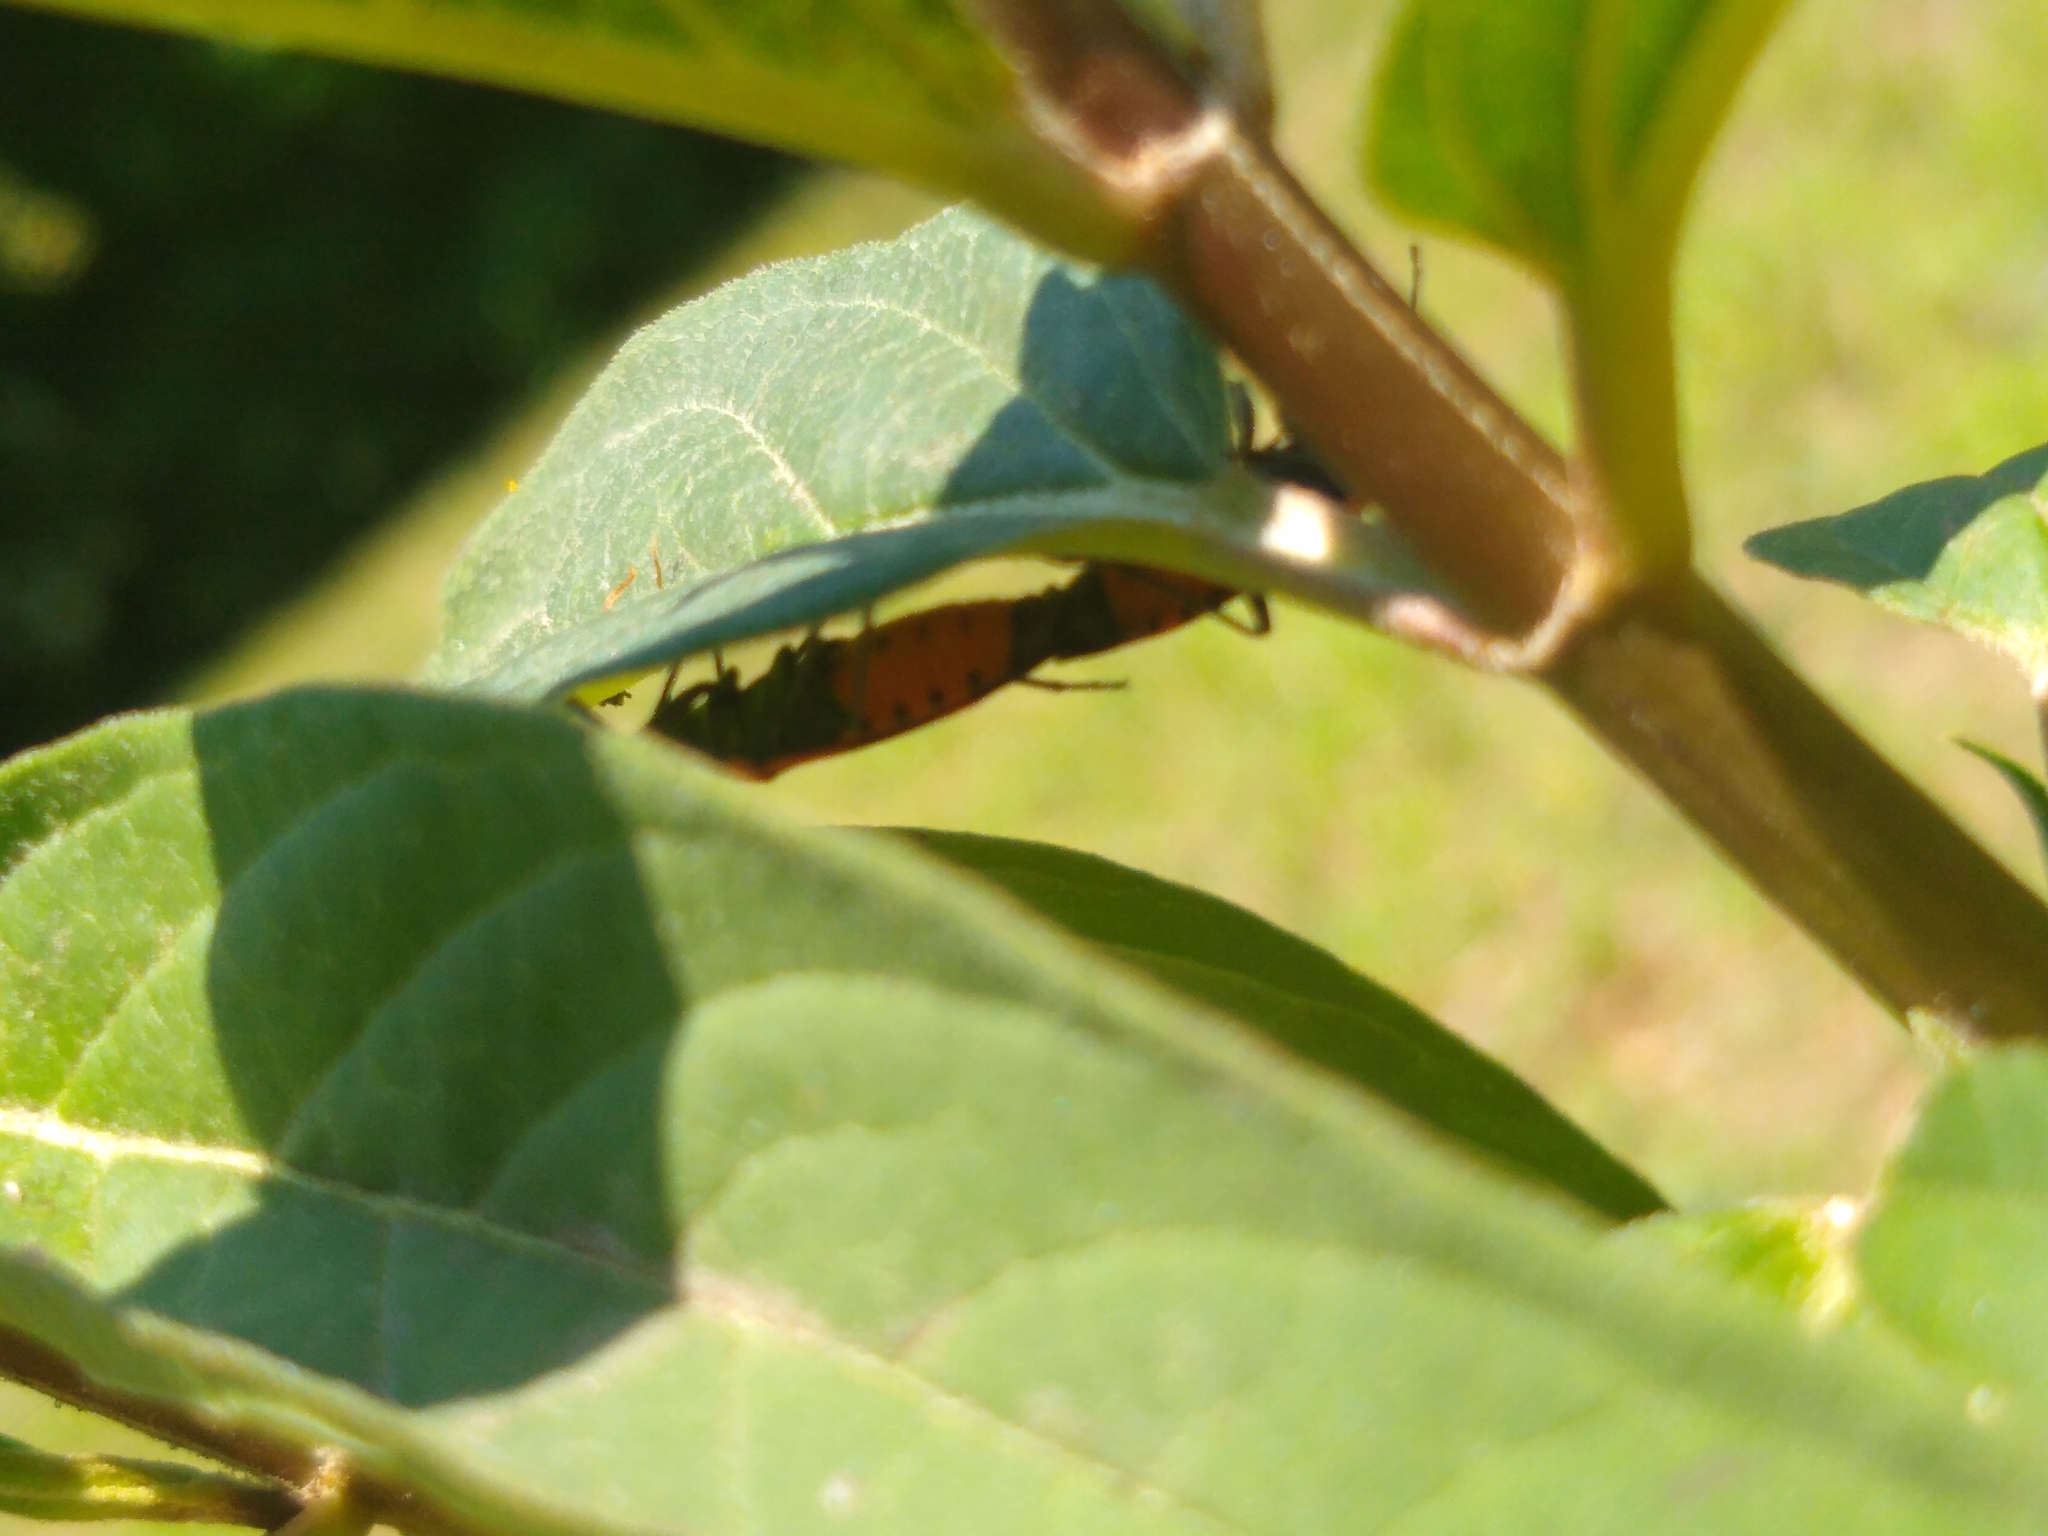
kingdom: Animalia
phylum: Arthropoda
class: Insecta
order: Hemiptera
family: Lygaeidae
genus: Lygaeus
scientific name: Lygaeus kalmii
